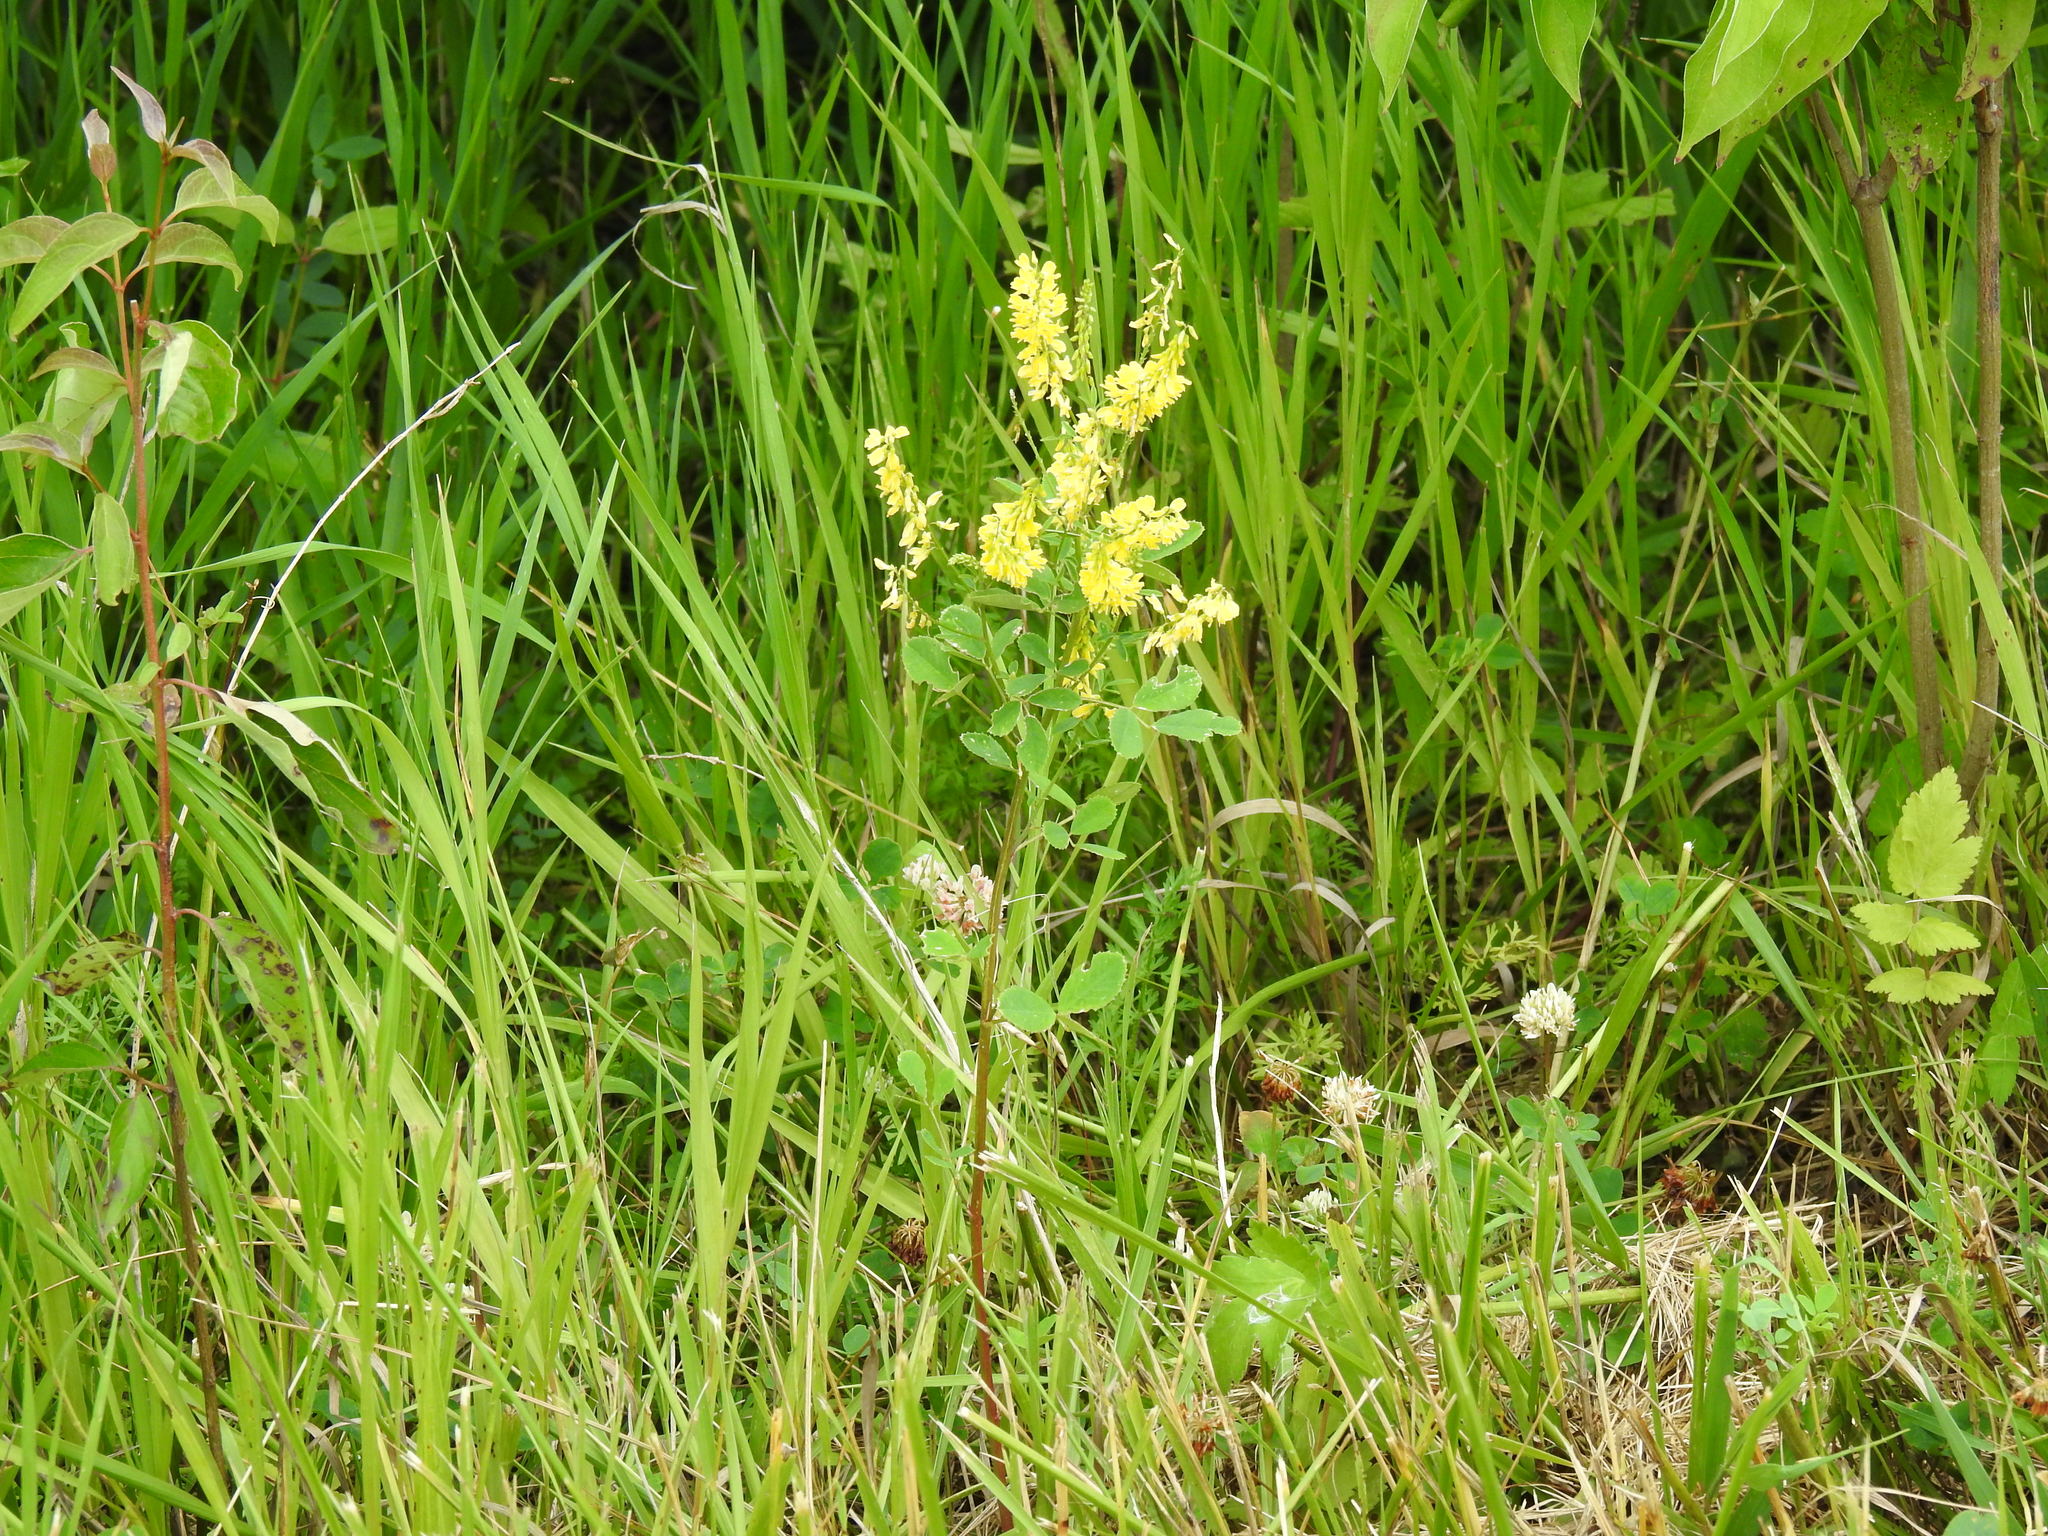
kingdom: Plantae
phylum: Tracheophyta
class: Magnoliopsida
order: Fabales
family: Fabaceae
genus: Melilotus
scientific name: Melilotus officinalis
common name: Sweetclover
